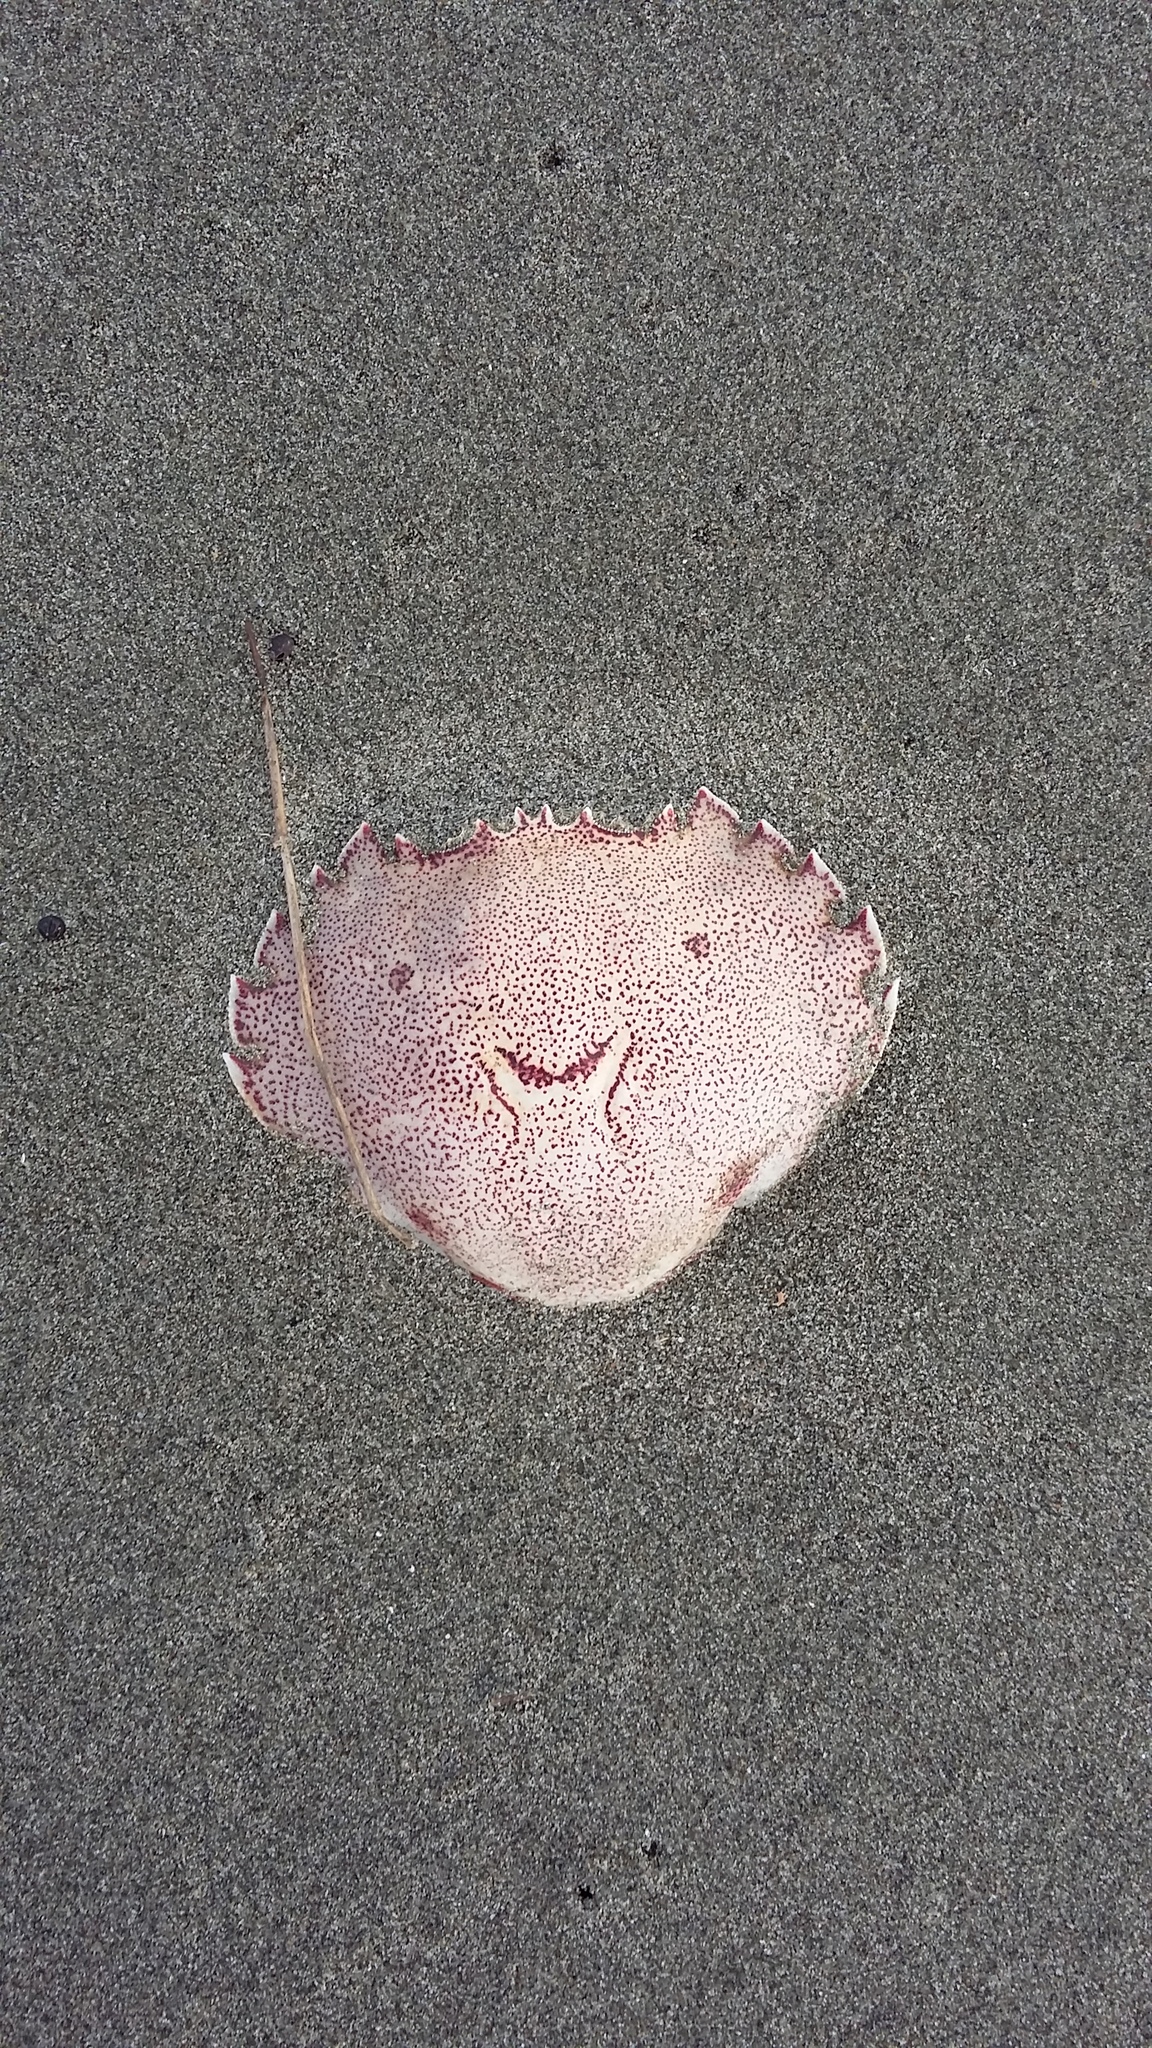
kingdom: Animalia
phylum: Arthropoda
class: Malacostraca
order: Decapoda
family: Ovalipidae
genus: Ovalipes
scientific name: Ovalipes catharus
